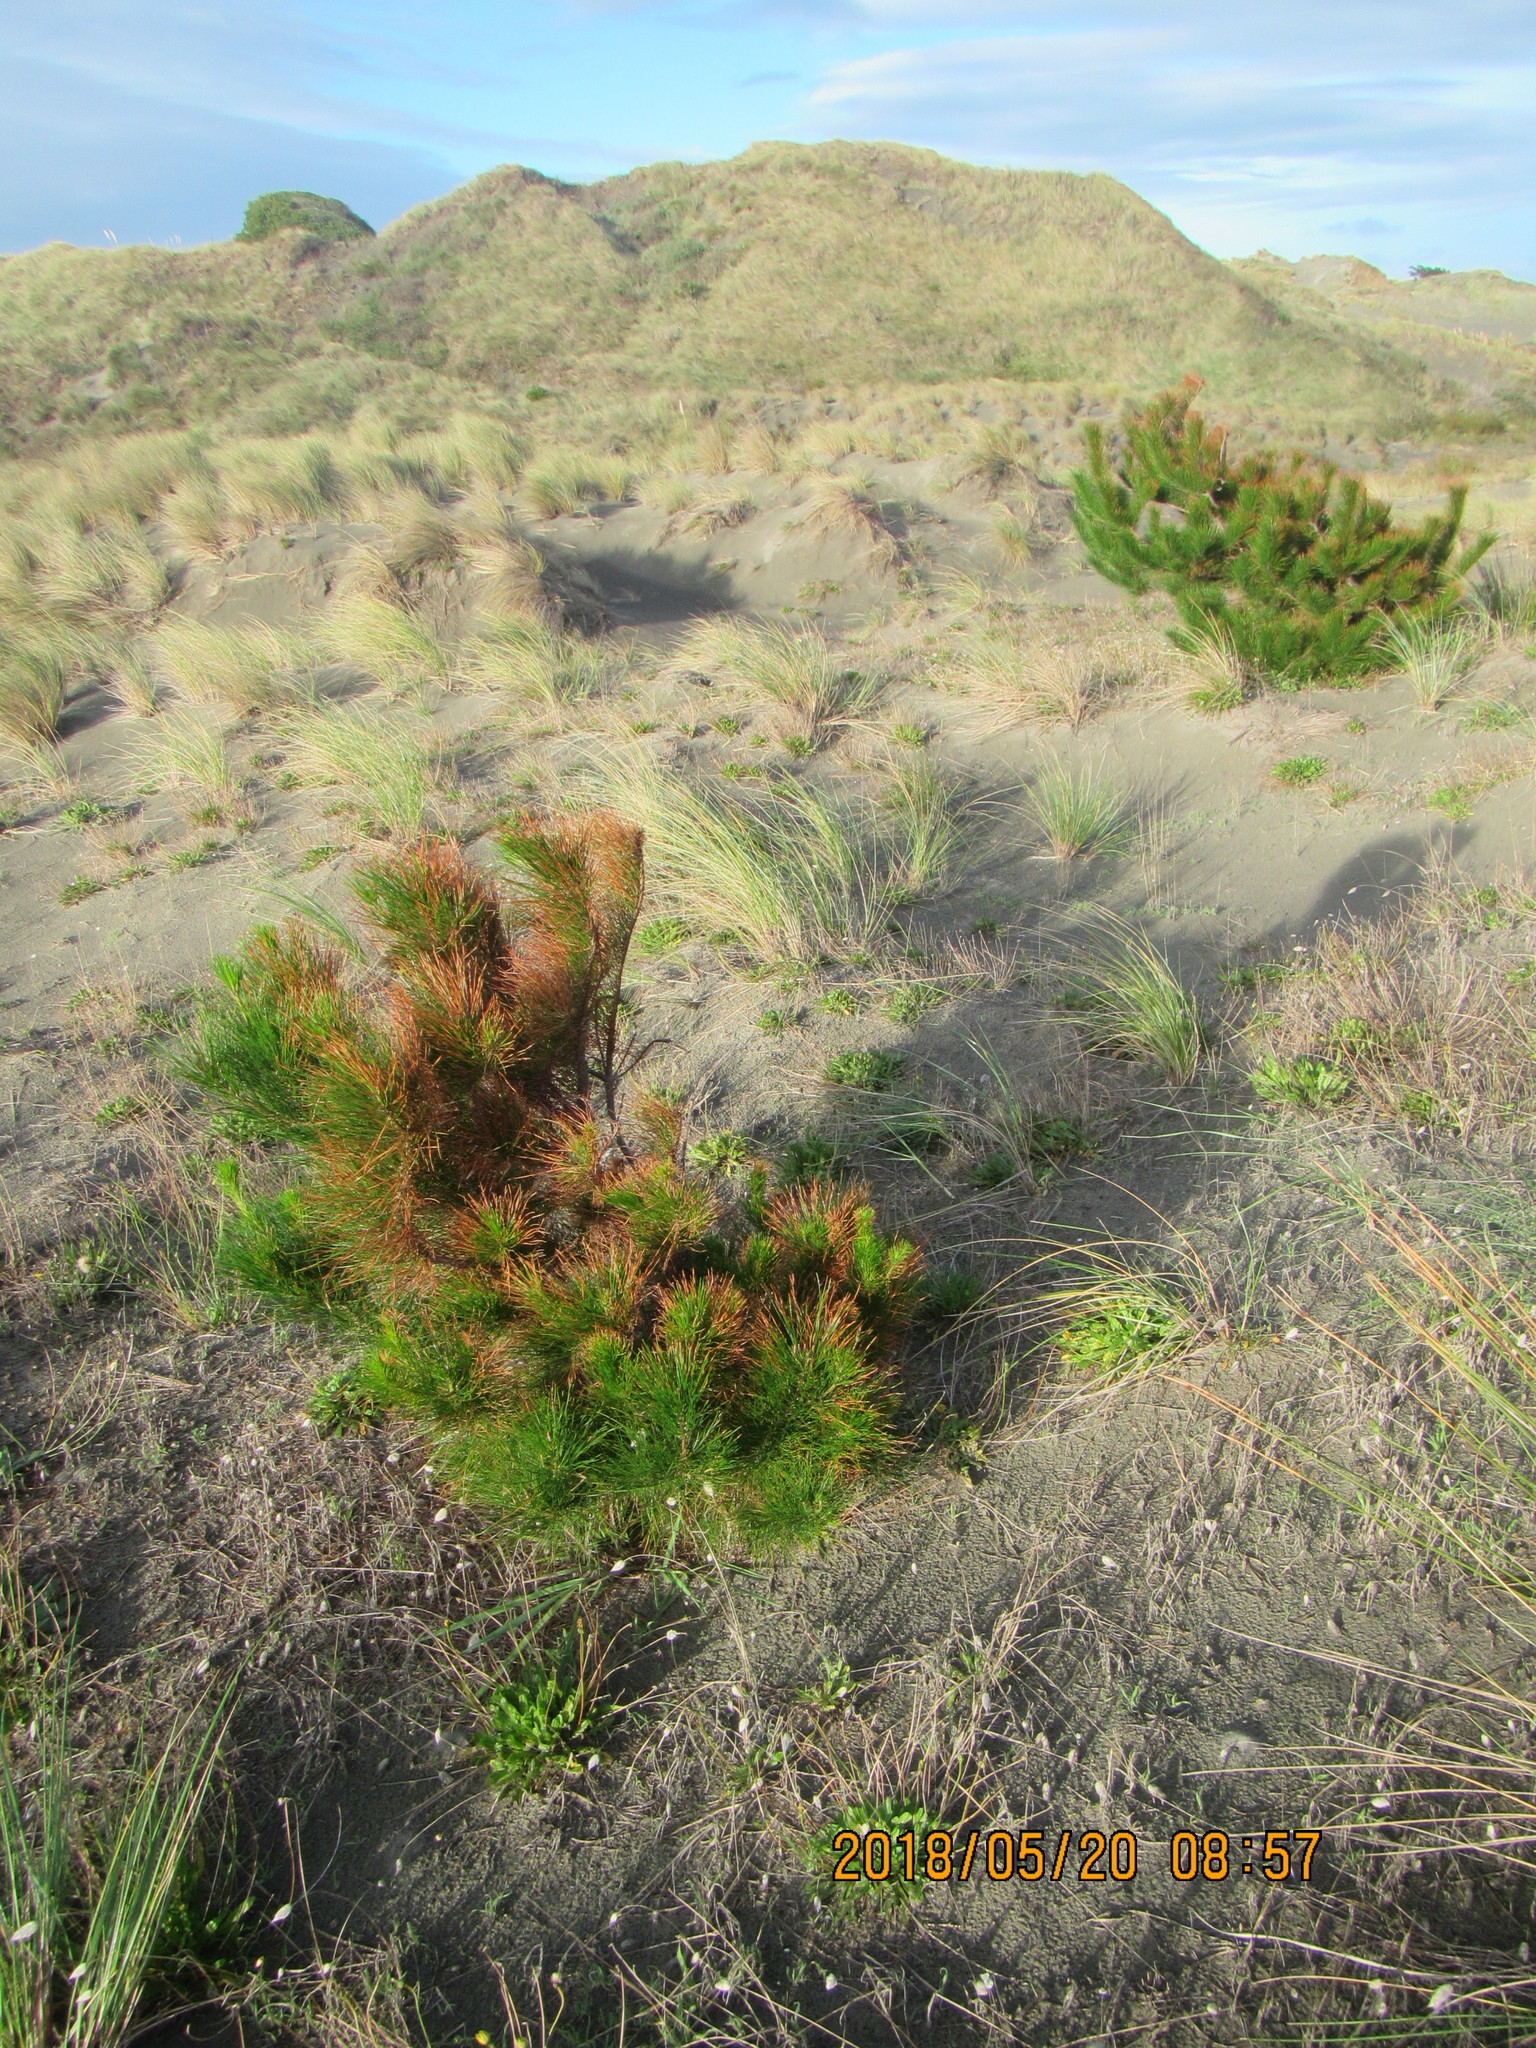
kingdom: Plantae
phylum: Tracheophyta
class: Pinopsida
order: Pinales
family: Pinaceae
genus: Pinus
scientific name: Pinus radiata
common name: Monterey pine
